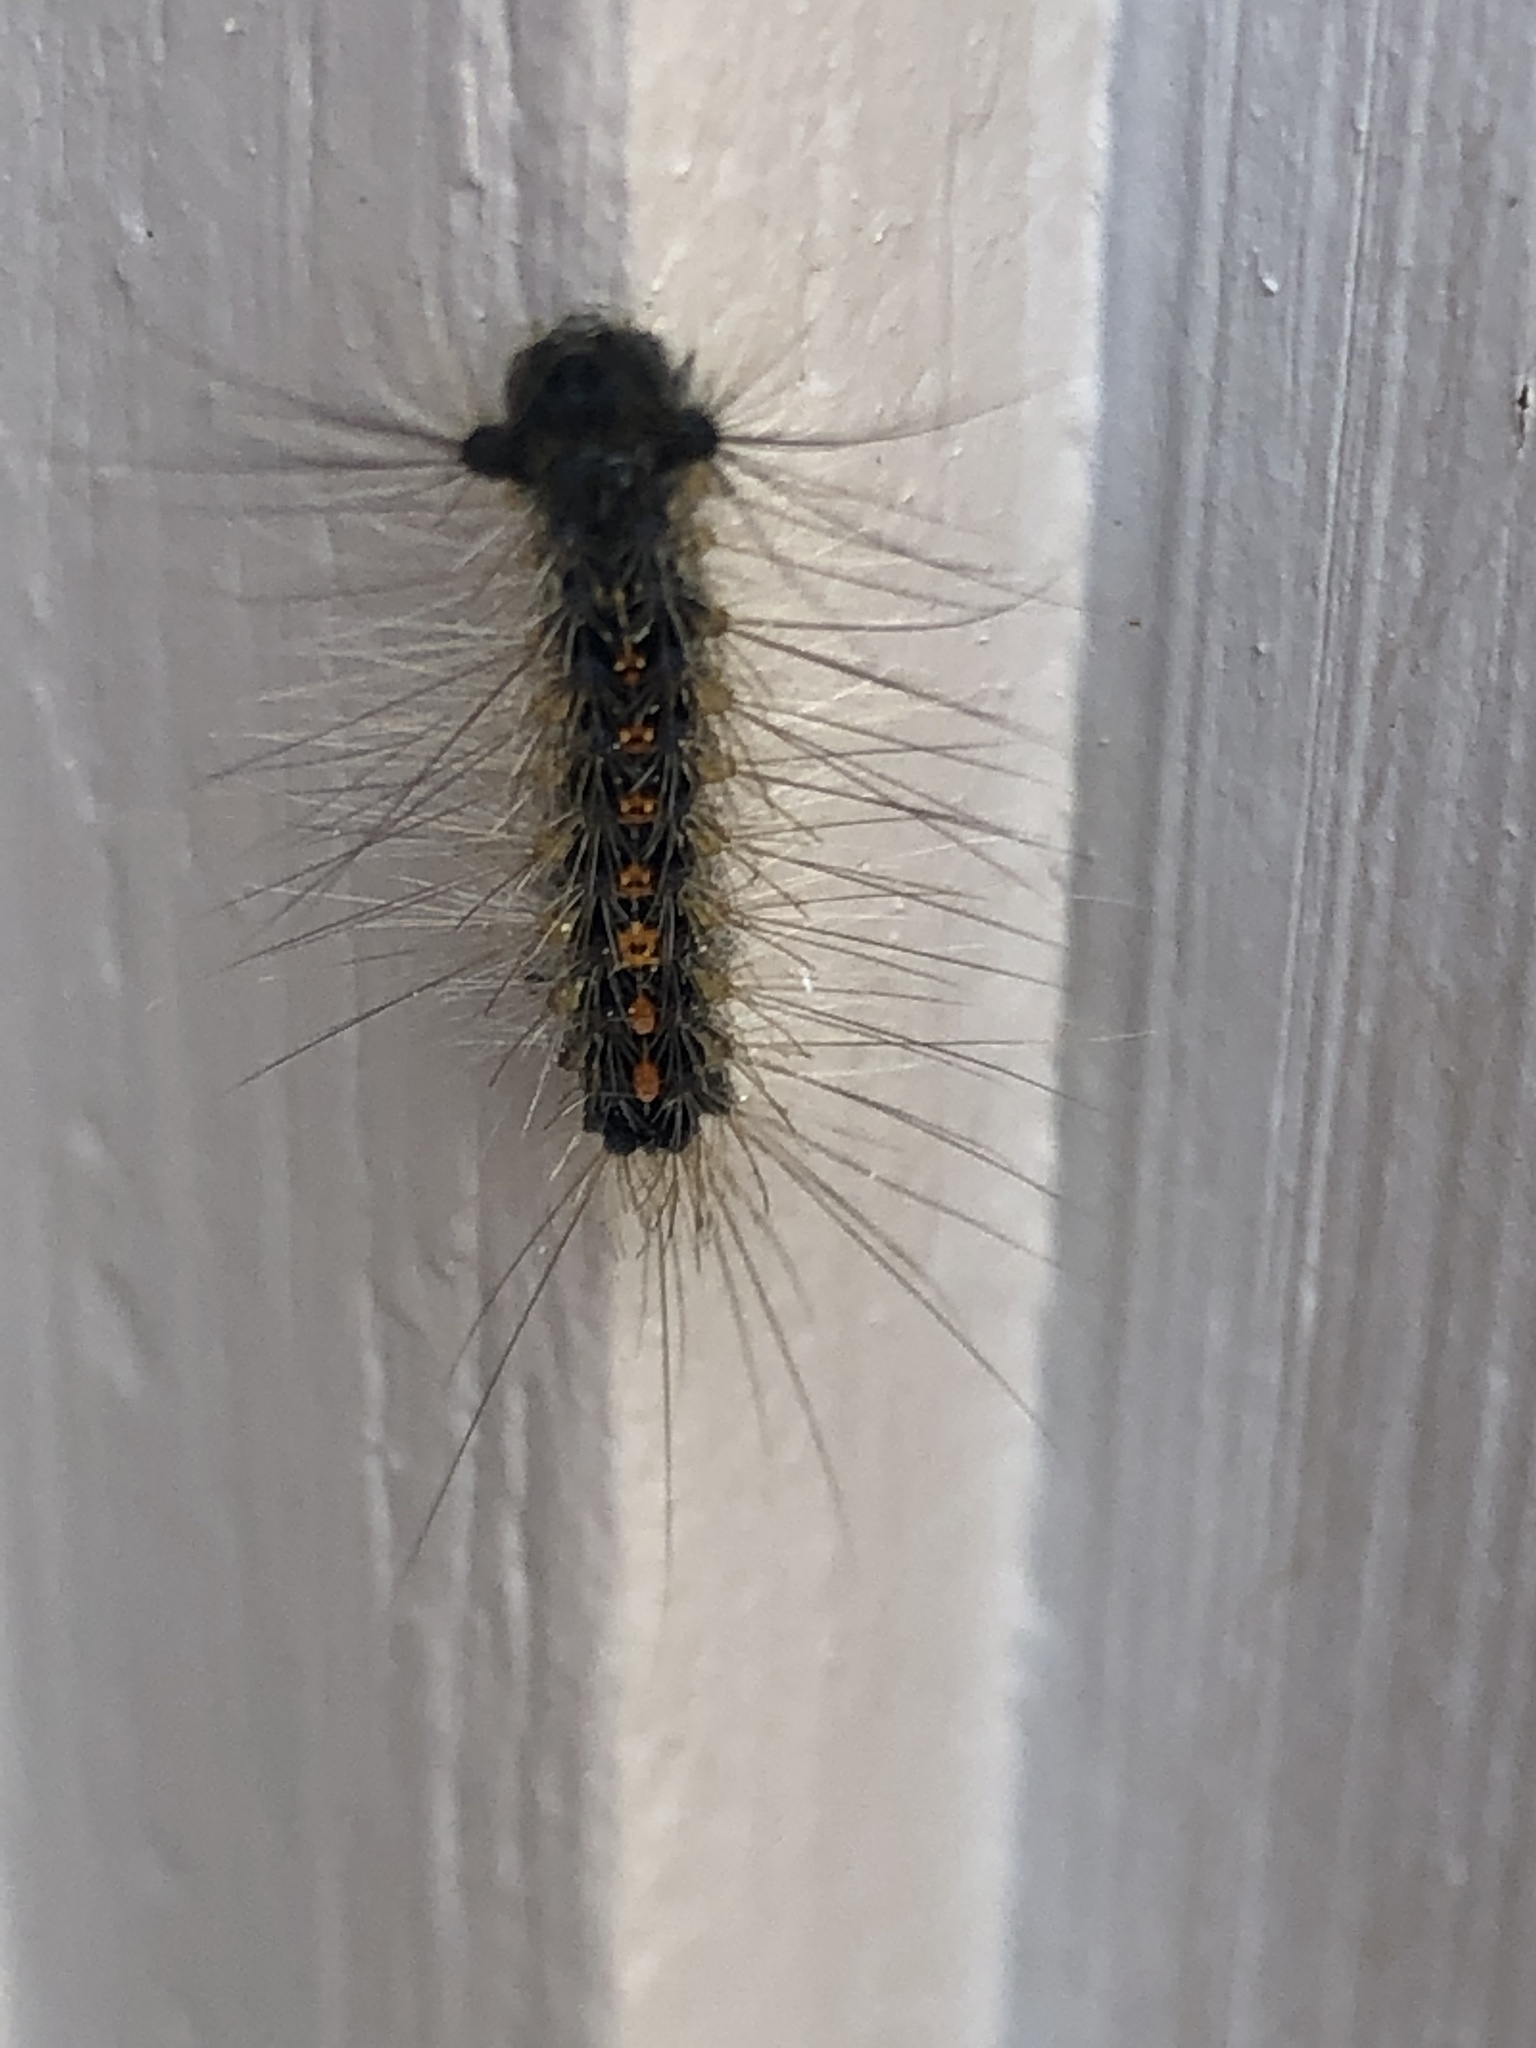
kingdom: Animalia
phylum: Arthropoda
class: Insecta
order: Lepidoptera
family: Erebidae
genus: Lymantria
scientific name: Lymantria dispar
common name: Gypsy moth
